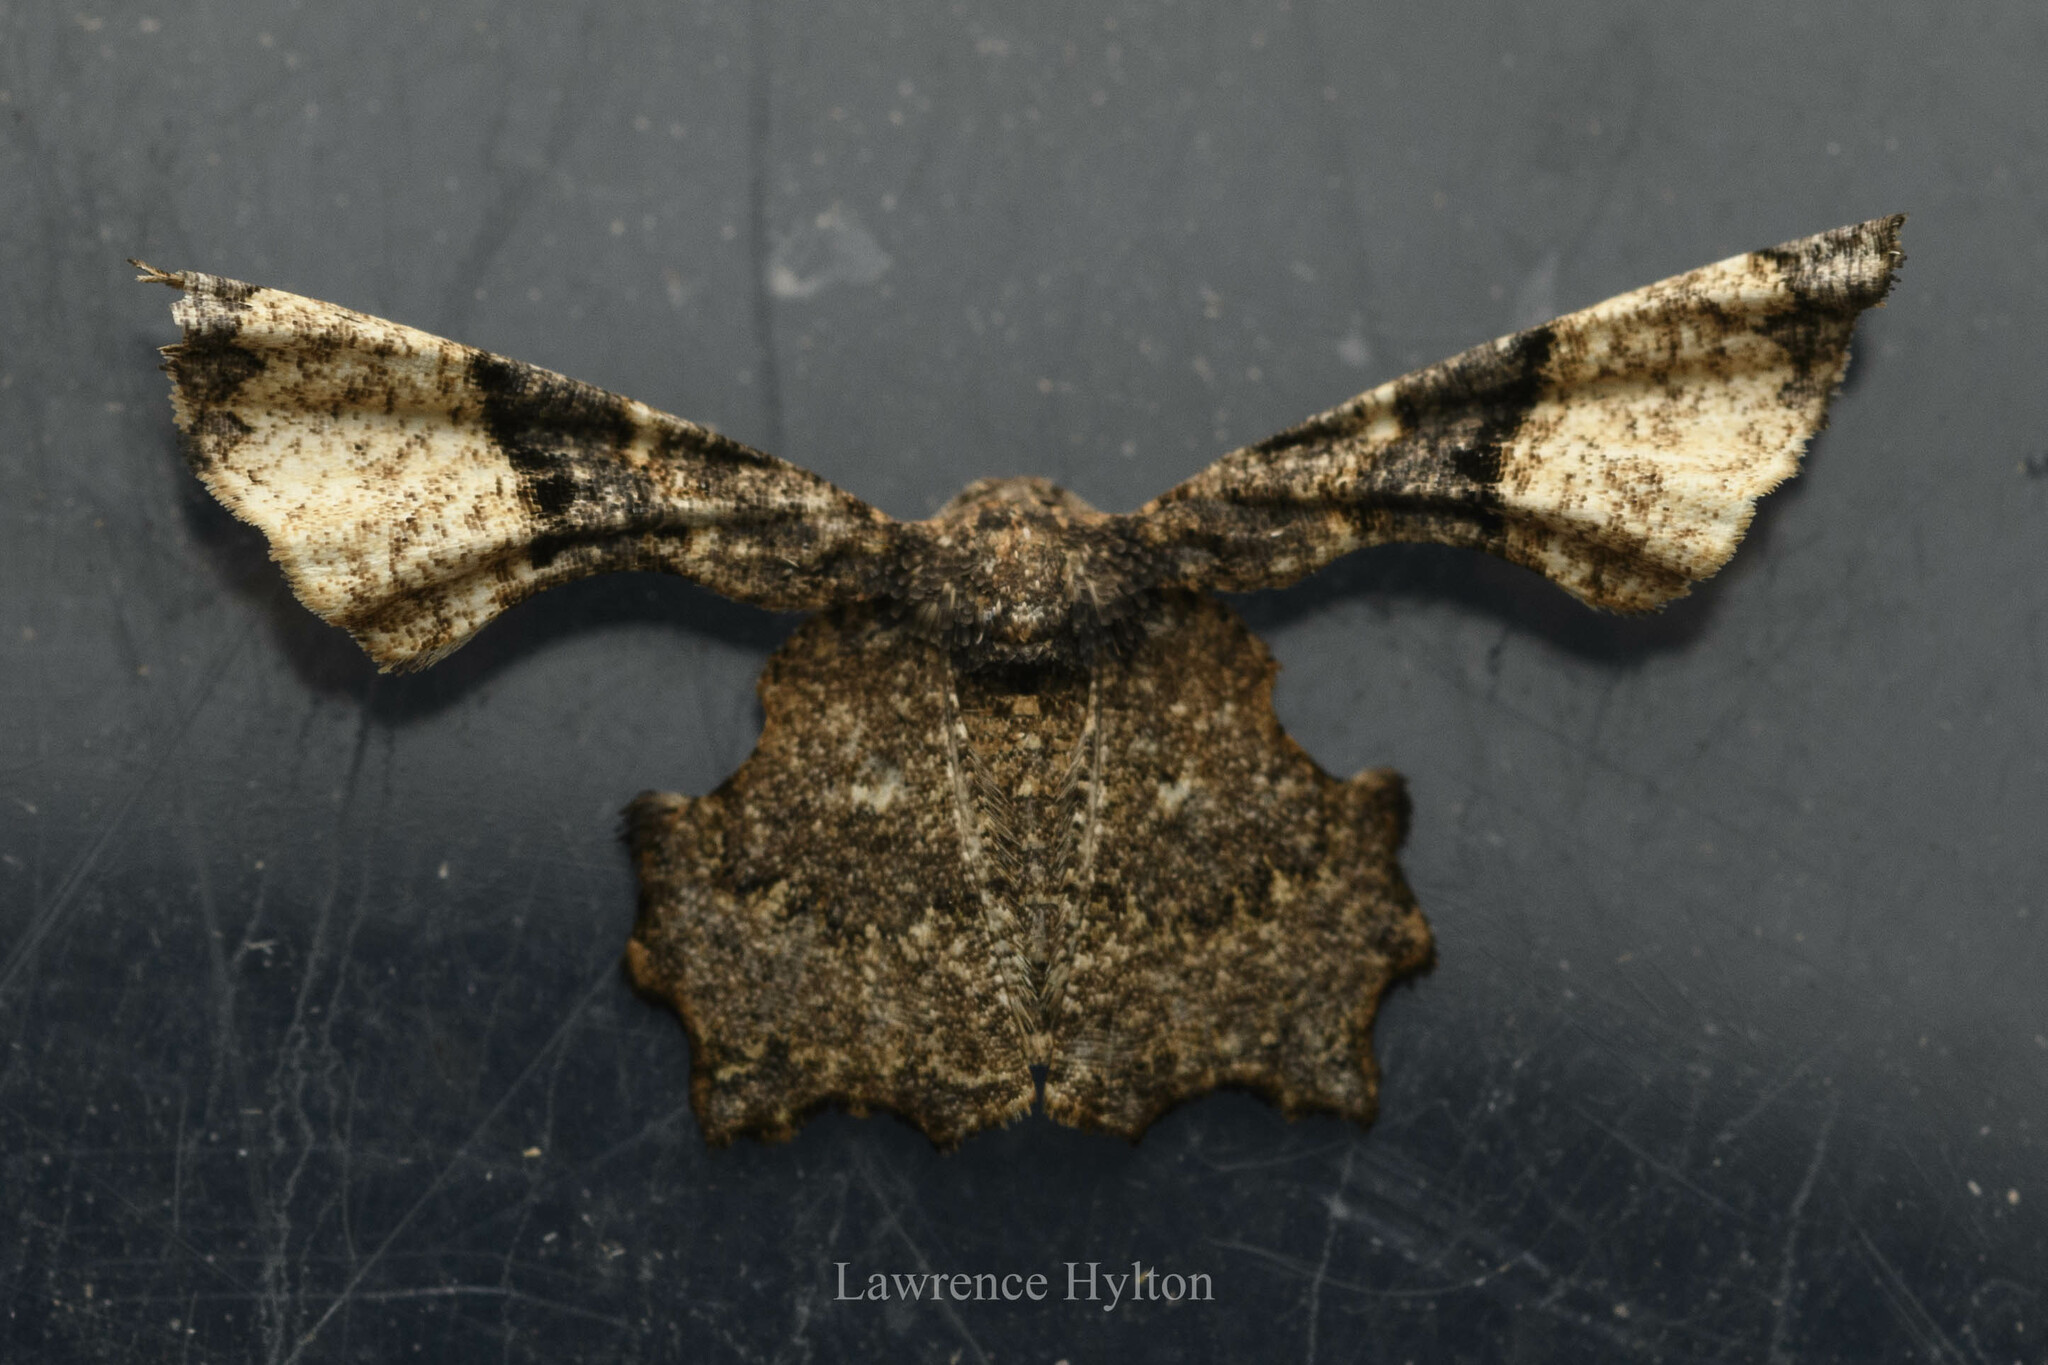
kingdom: Animalia
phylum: Arthropoda
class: Insecta
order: Lepidoptera
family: Uraniidae
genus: Gathynia
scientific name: Gathynia pernigrata
